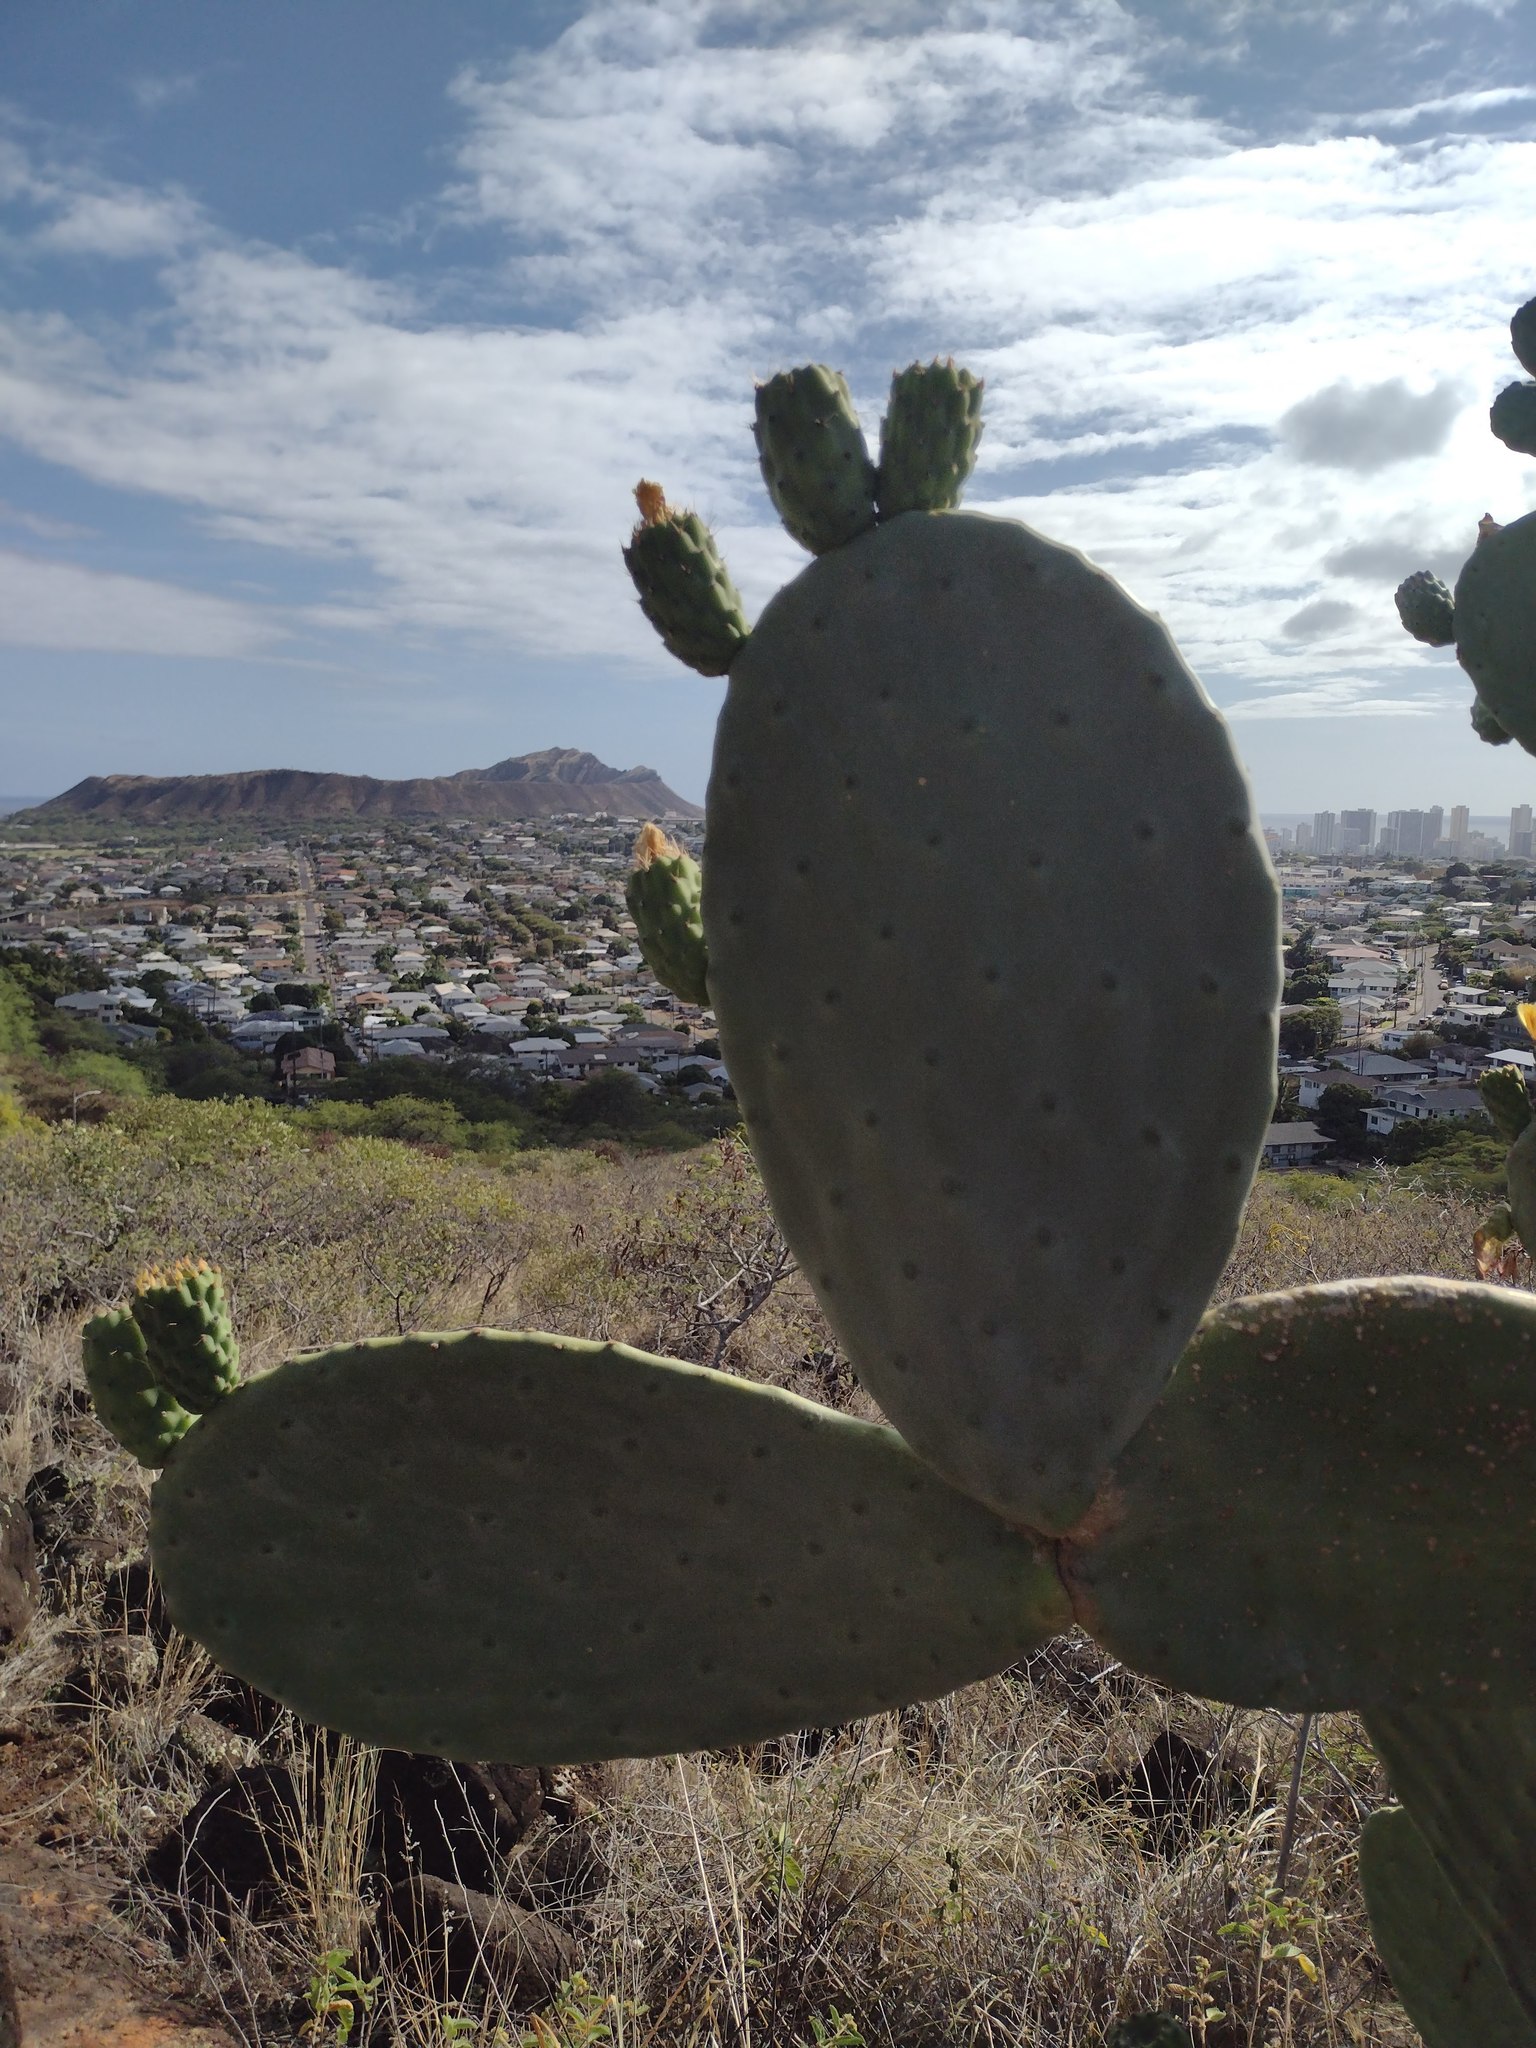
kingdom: Plantae
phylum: Tracheophyta
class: Magnoliopsida
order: Caryophyllales
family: Cactaceae
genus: Opuntia
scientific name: Opuntia ficus-indica
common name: Barbary fig
